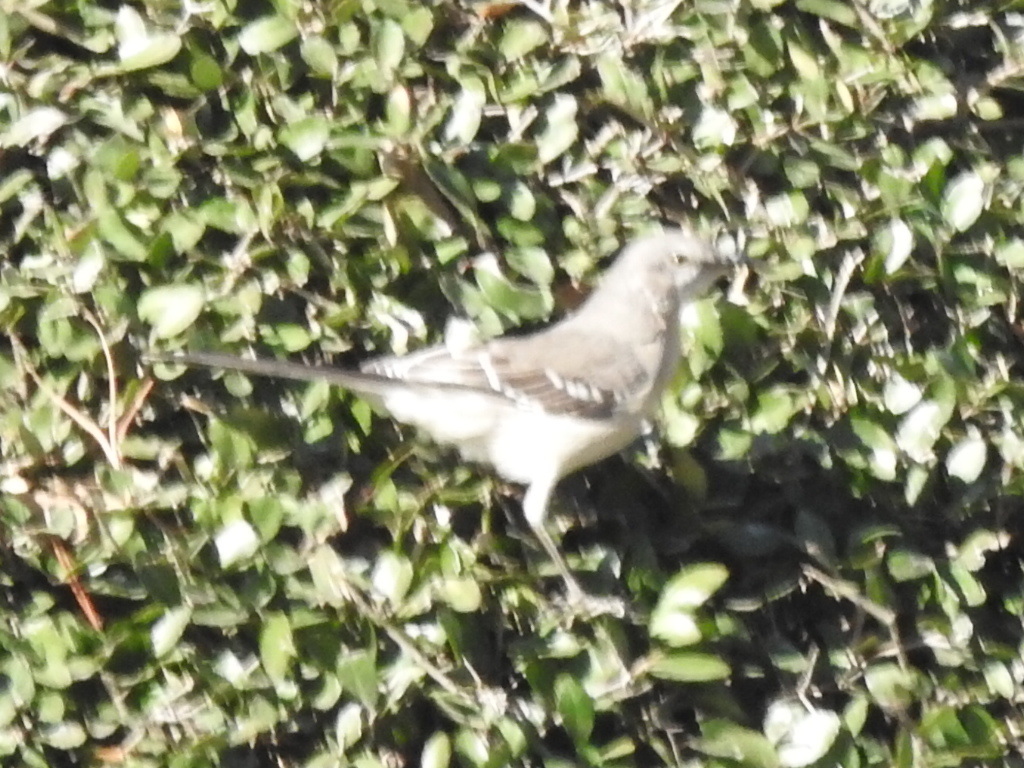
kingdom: Animalia
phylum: Chordata
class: Aves
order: Passeriformes
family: Mimidae
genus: Mimus
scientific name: Mimus polyglottos
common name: Northern mockingbird
